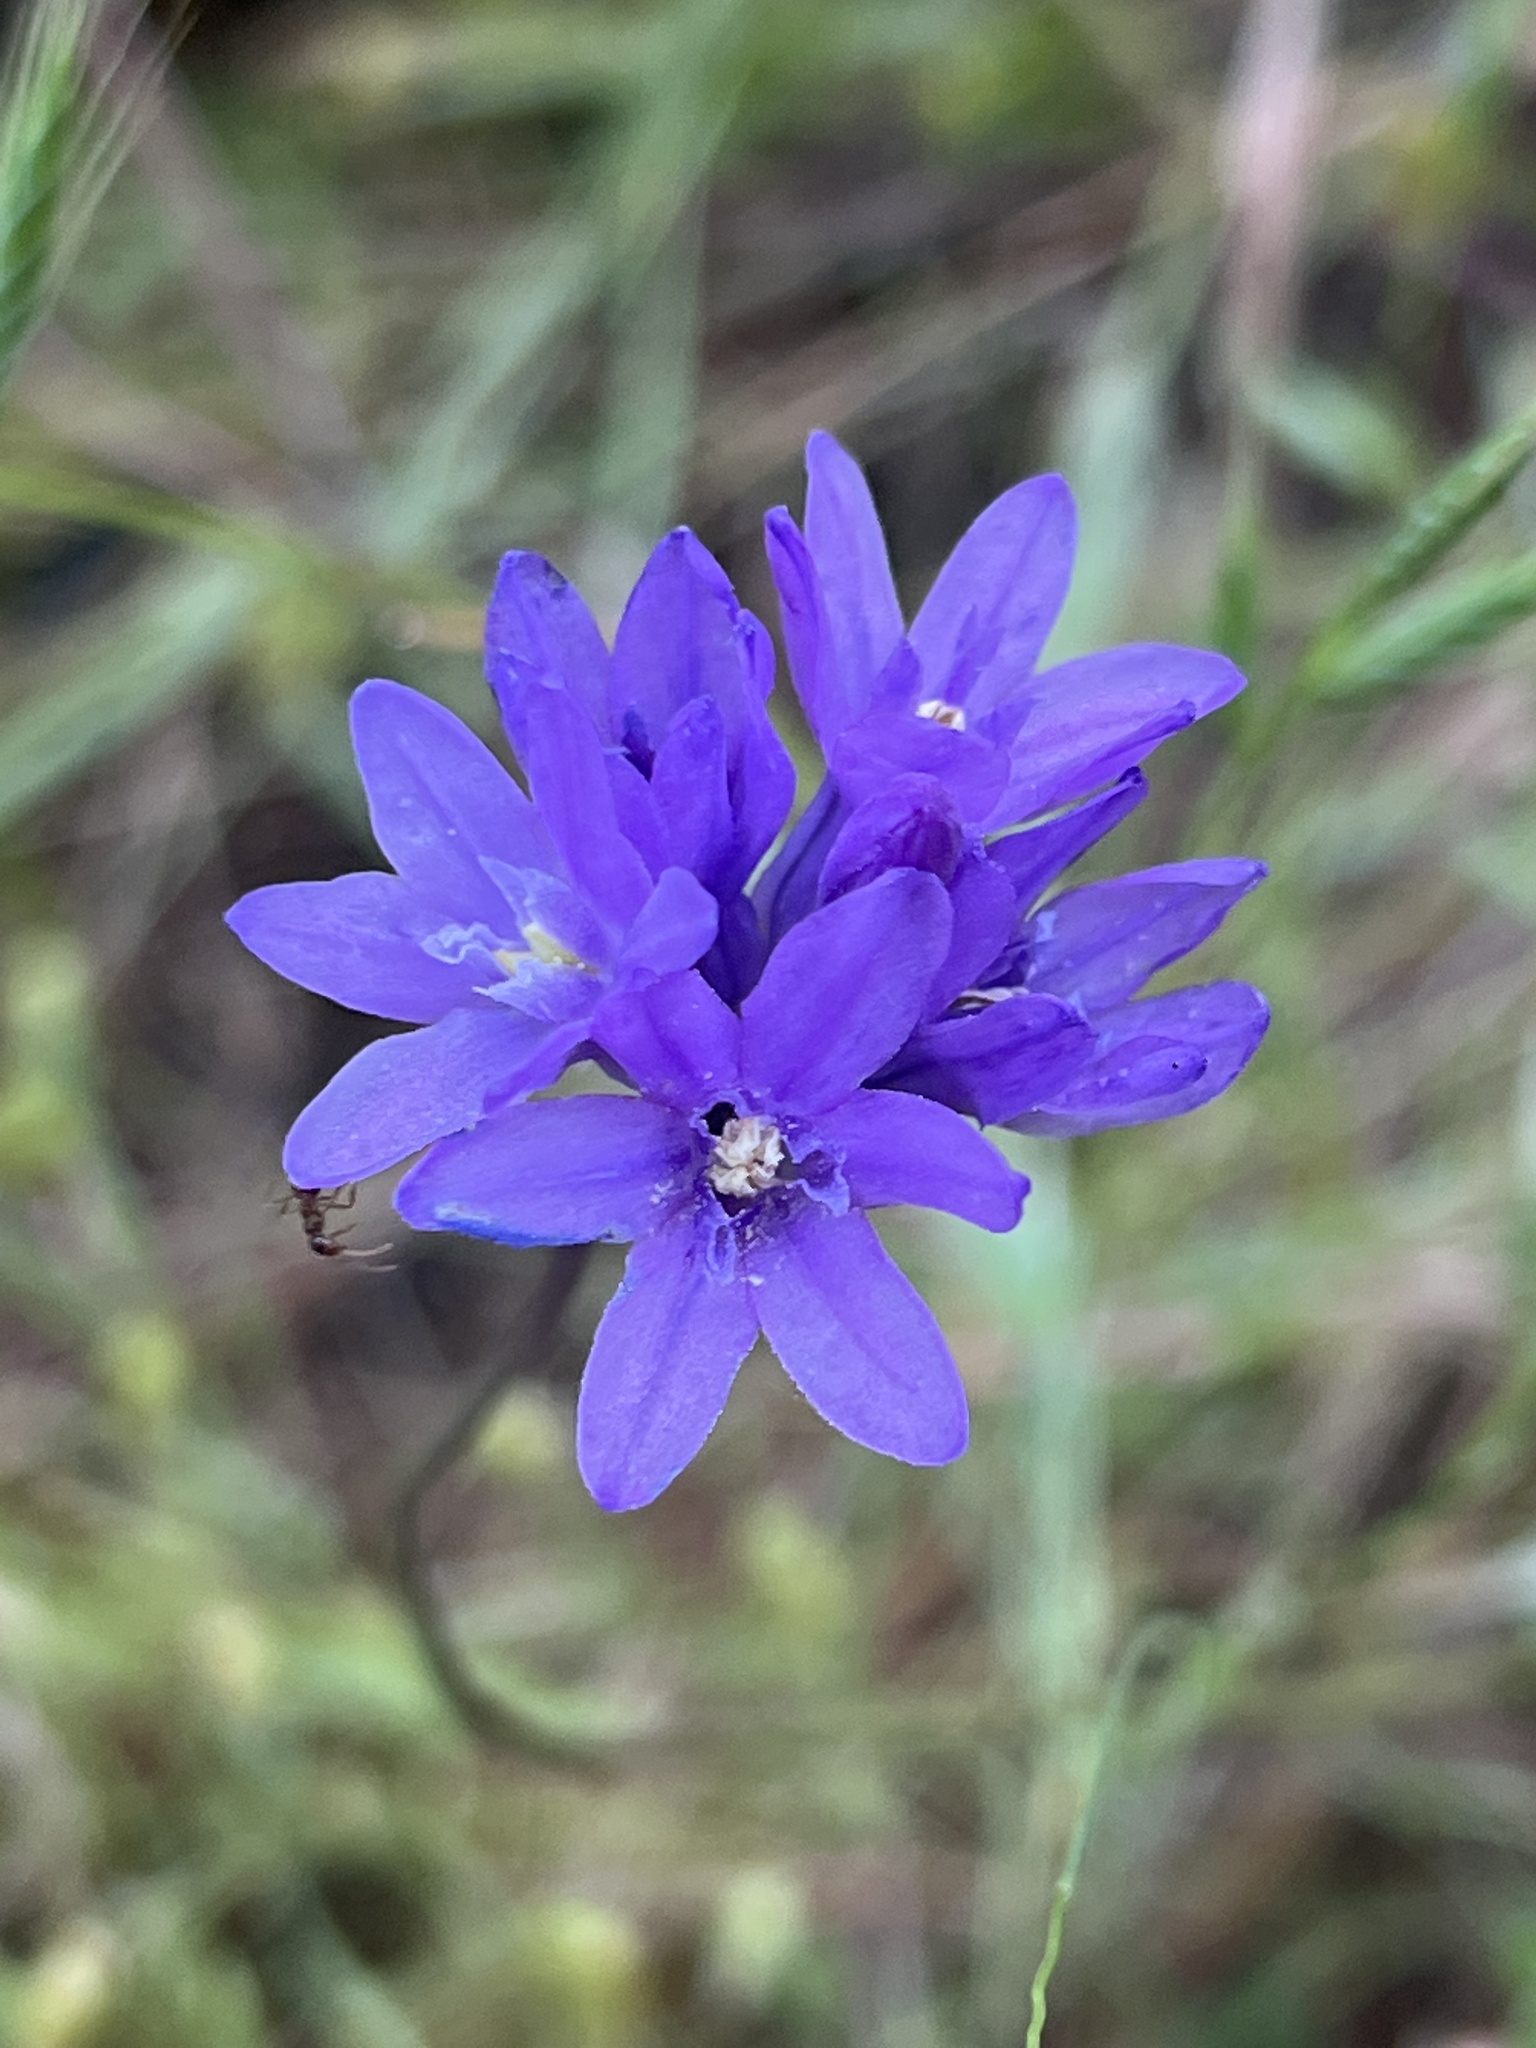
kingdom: Plantae
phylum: Tracheophyta
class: Liliopsida
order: Asparagales
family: Asparagaceae
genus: Dichelostemma
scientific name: Dichelostemma congestum
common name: Fork-tooth ookow
